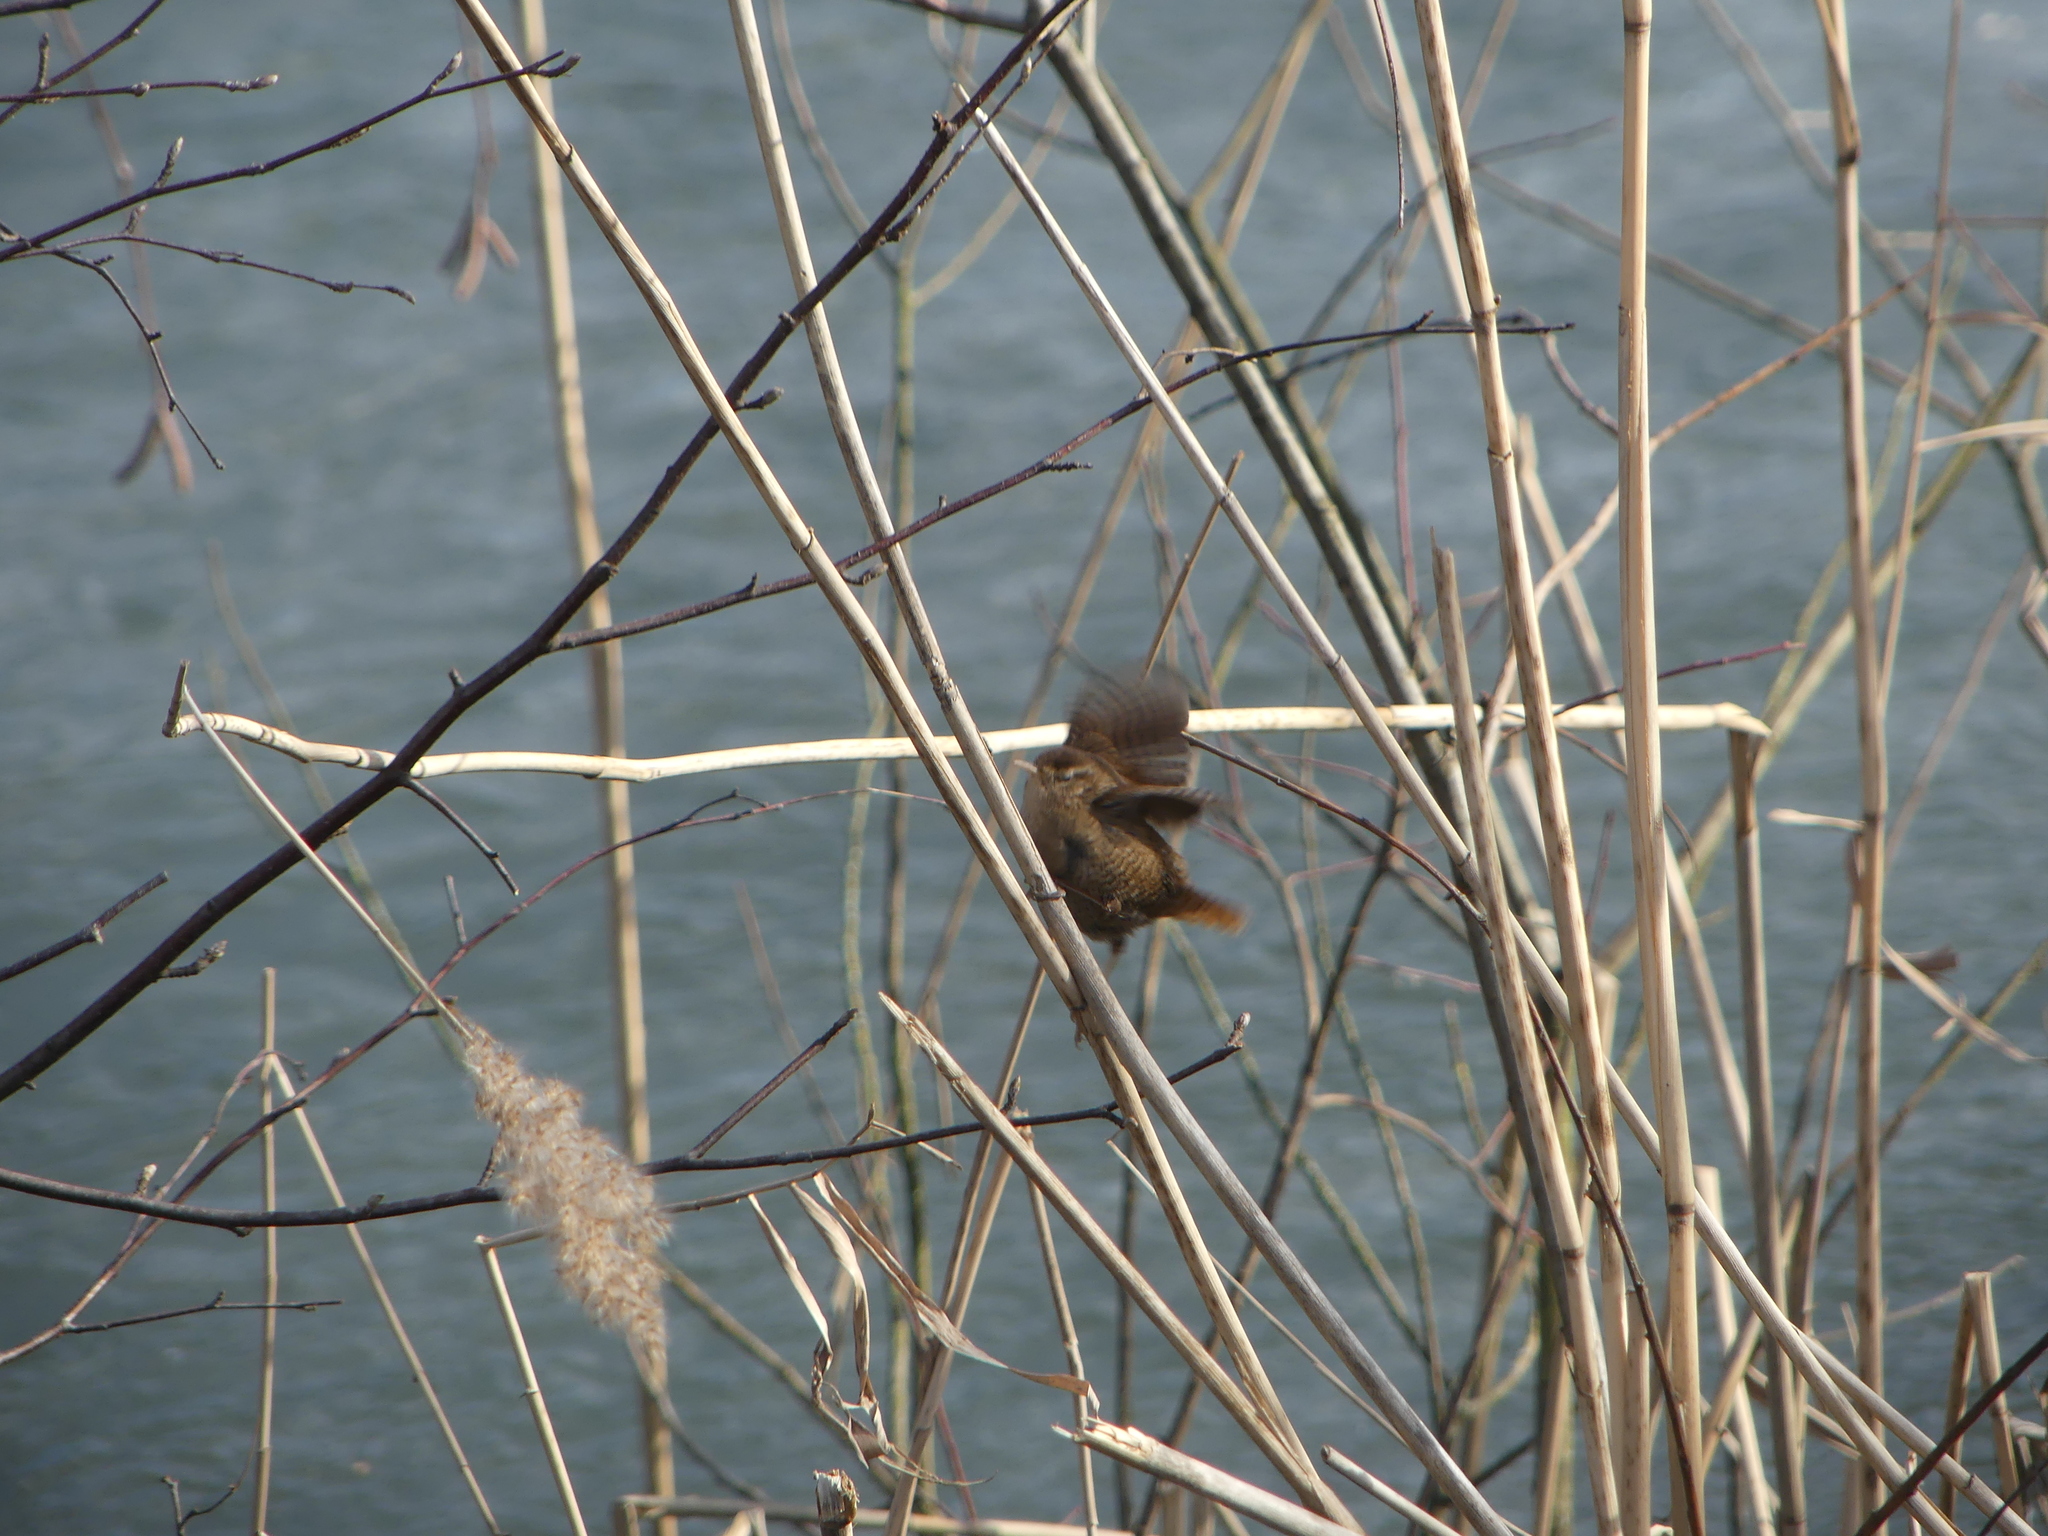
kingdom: Animalia
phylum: Chordata
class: Aves
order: Passeriformes
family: Troglodytidae
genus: Troglodytes
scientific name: Troglodytes troglodytes
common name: Eurasian wren
